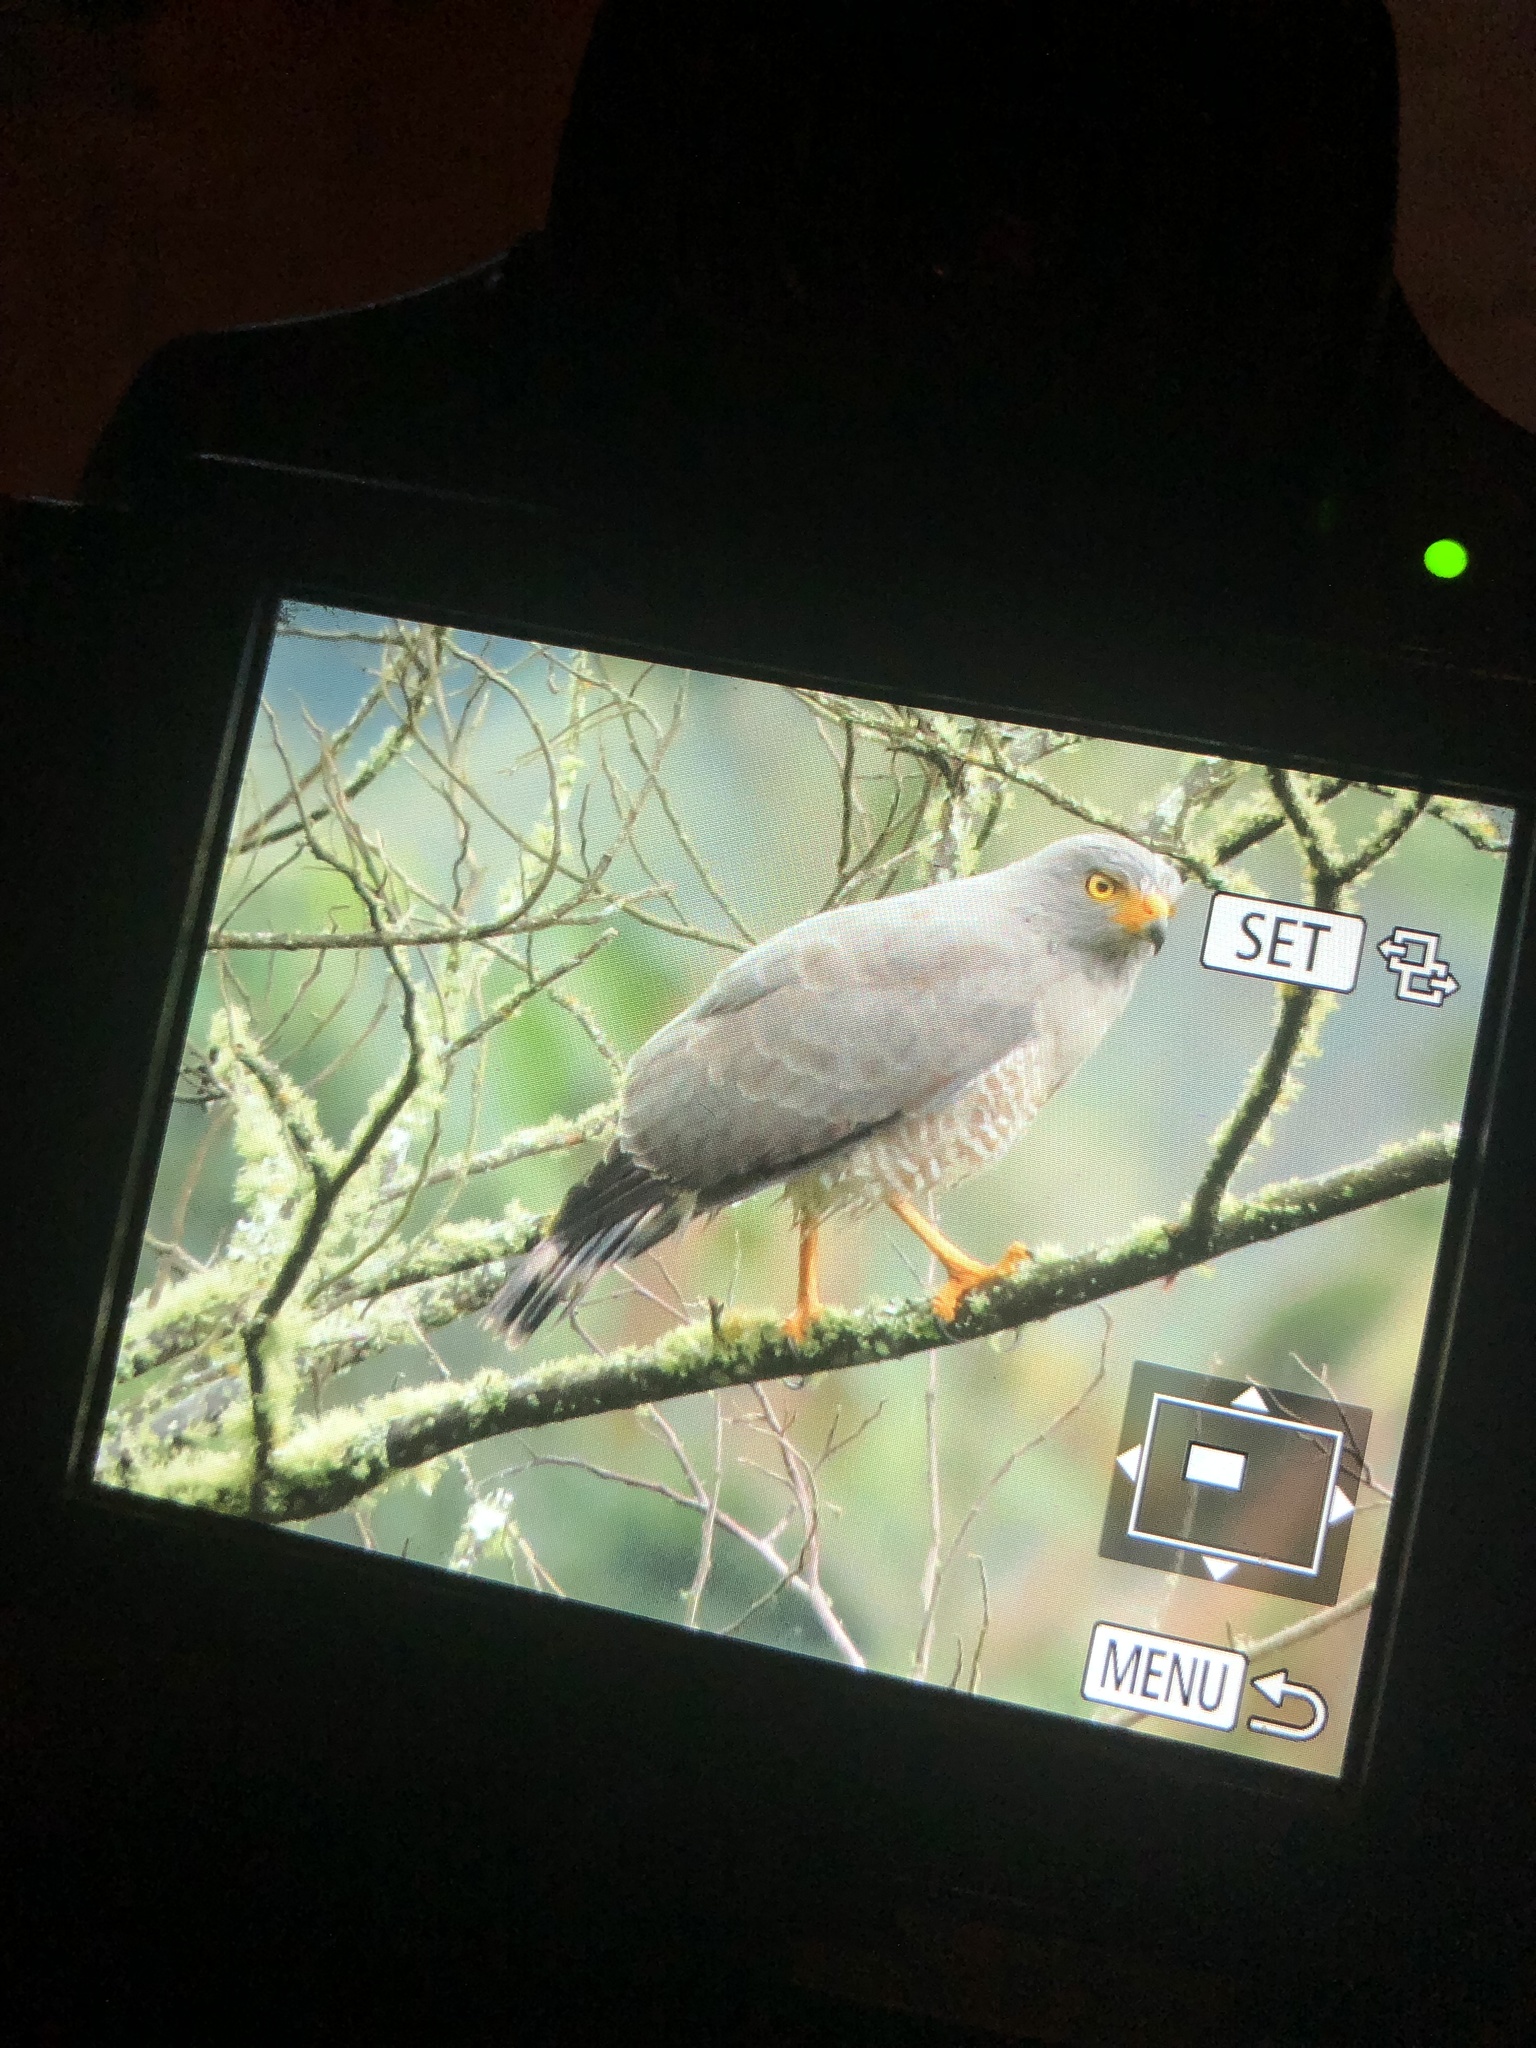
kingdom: Animalia
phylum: Chordata
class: Aves
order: Accipitriformes
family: Accipitridae
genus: Rupornis
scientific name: Rupornis magnirostris
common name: Roadside hawk
